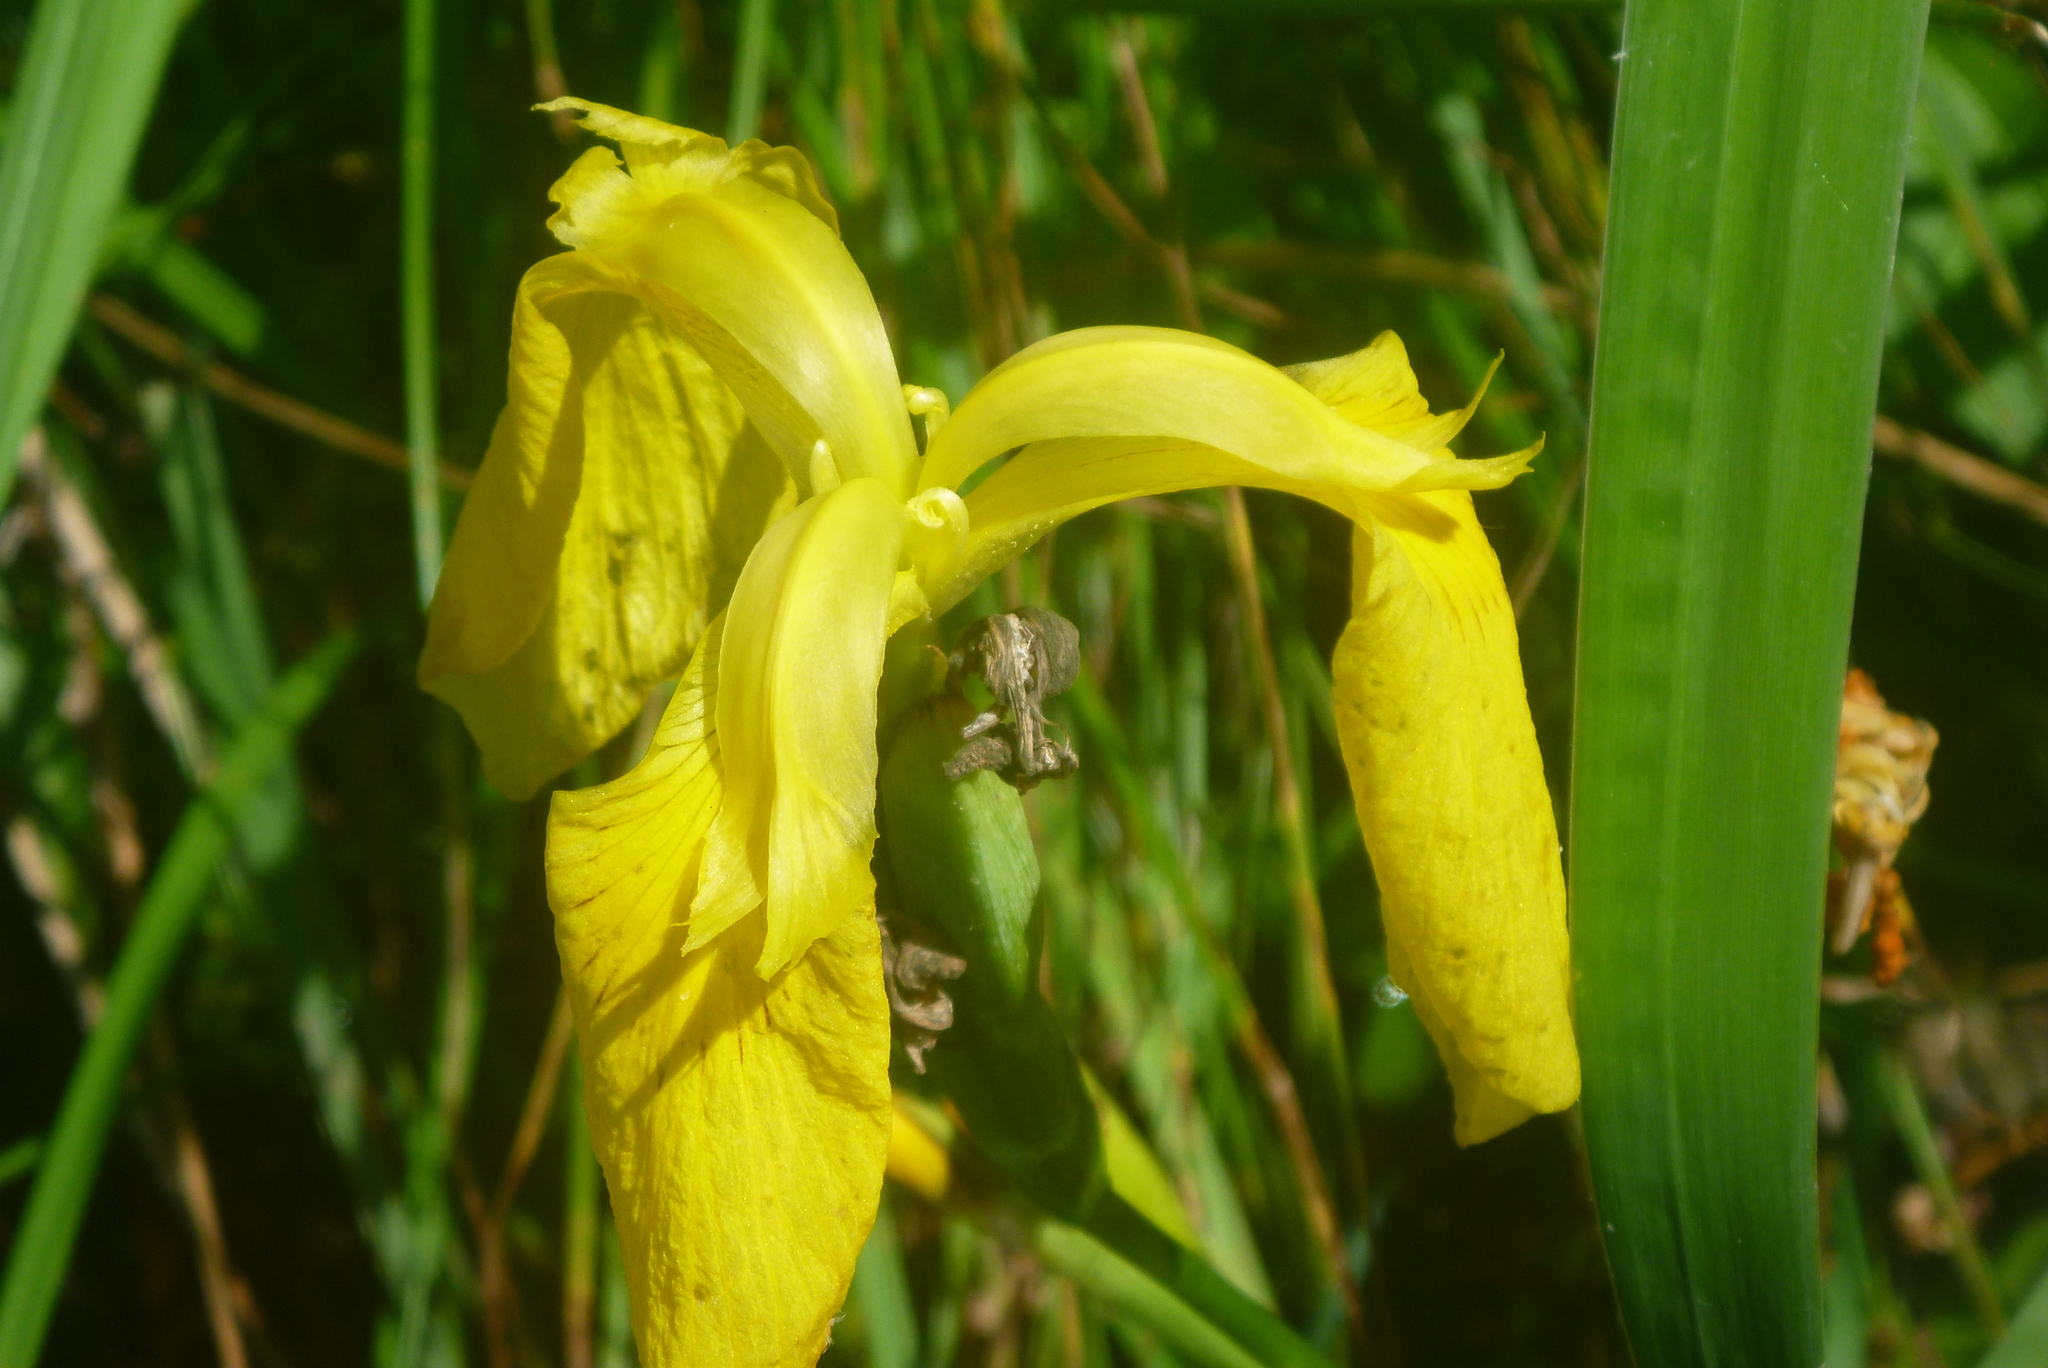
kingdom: Plantae
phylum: Tracheophyta
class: Liliopsida
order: Asparagales
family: Iridaceae
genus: Iris
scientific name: Iris pseudacorus
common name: Yellow flag
